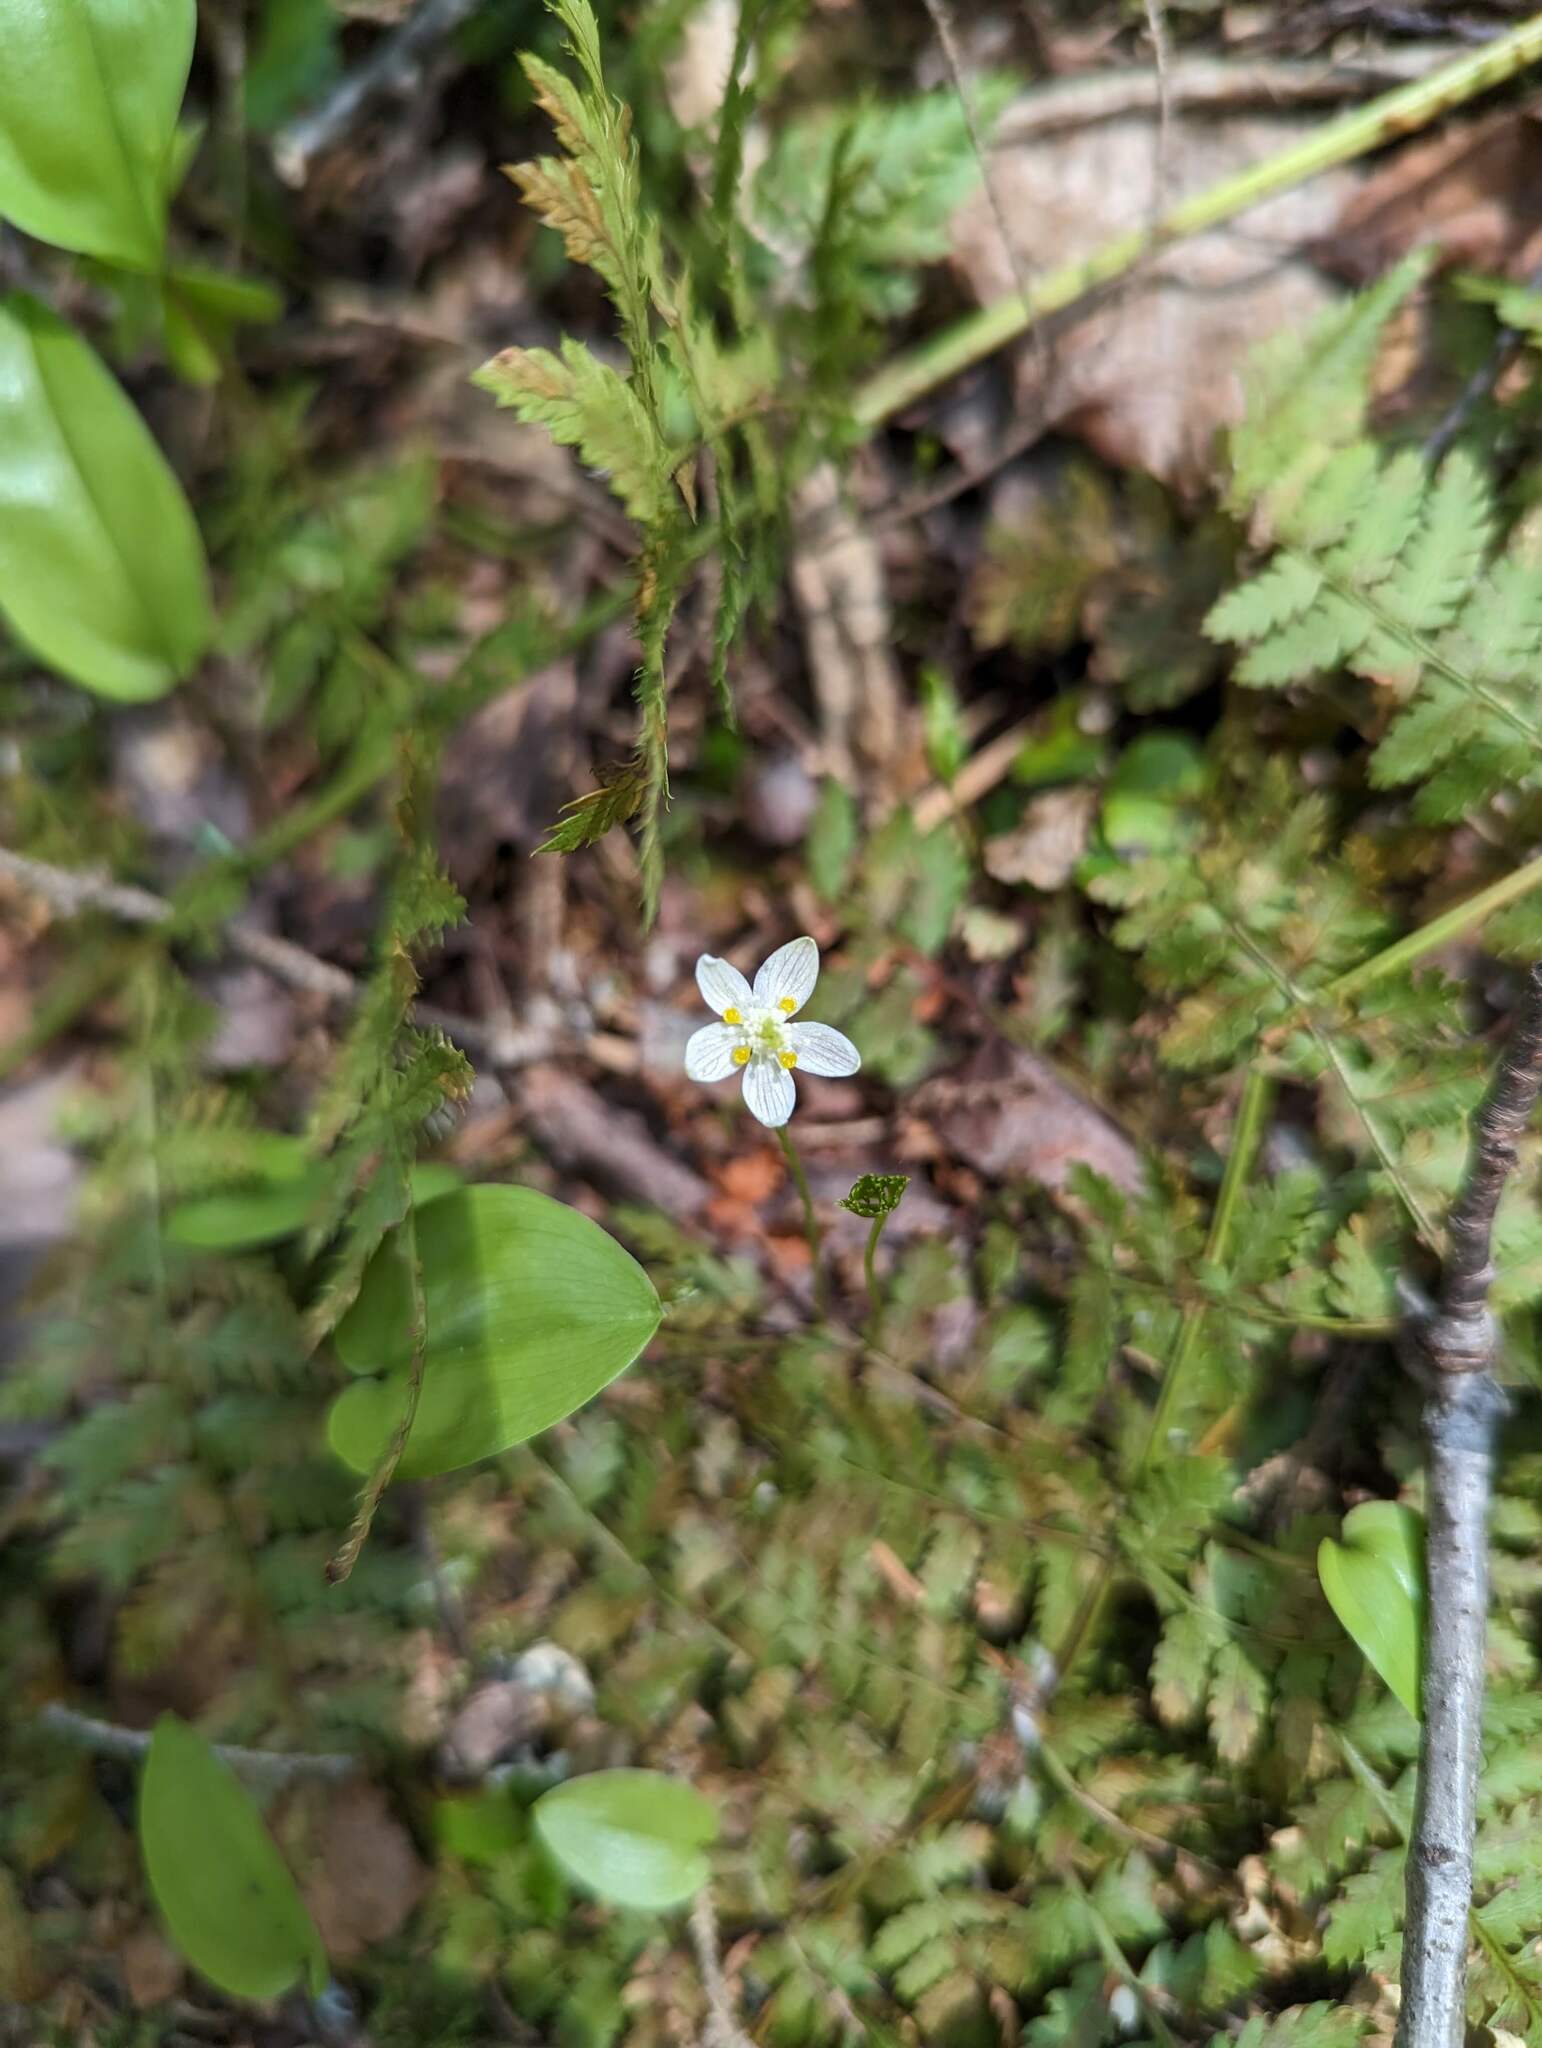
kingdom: Plantae
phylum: Tracheophyta
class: Magnoliopsida
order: Ranunculales
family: Ranunculaceae
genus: Coptis
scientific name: Coptis trifolia
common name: Canker-root
